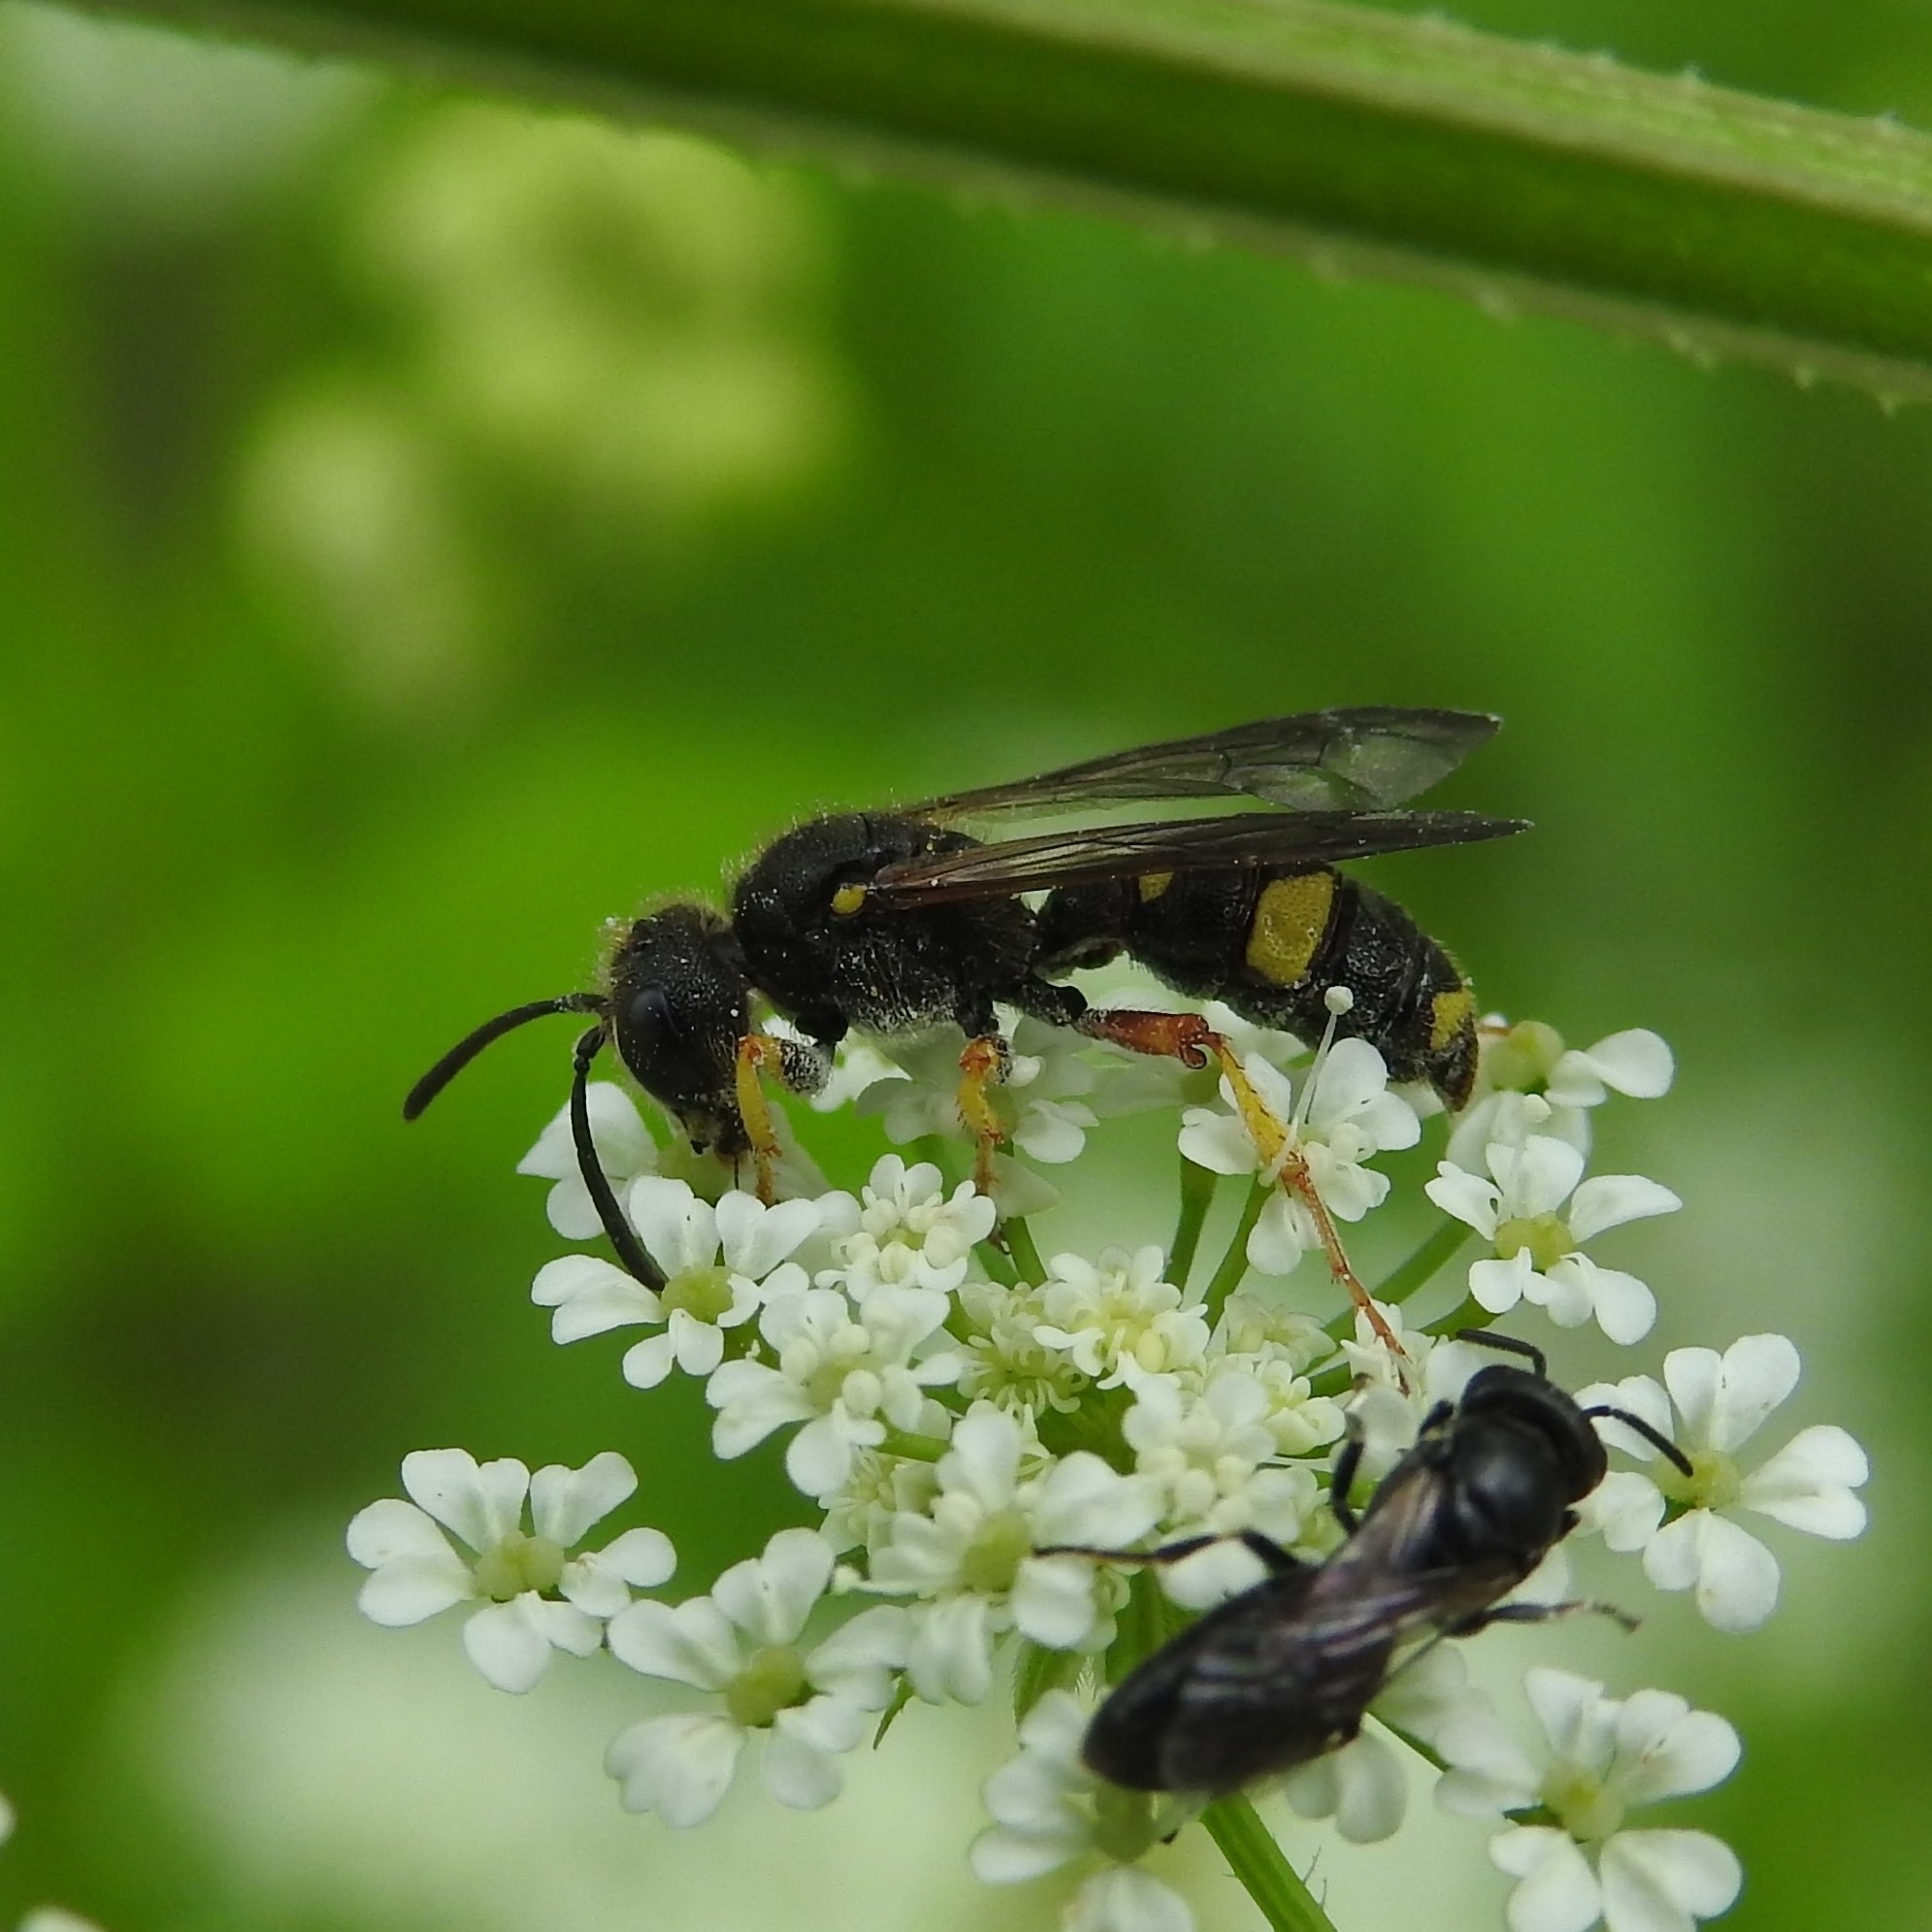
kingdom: Animalia
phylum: Arthropoda
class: Insecta
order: Hymenoptera
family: Crabronidae
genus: Cerceris
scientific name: Cerceris rybyensis
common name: Ornate tailed digger wasp
